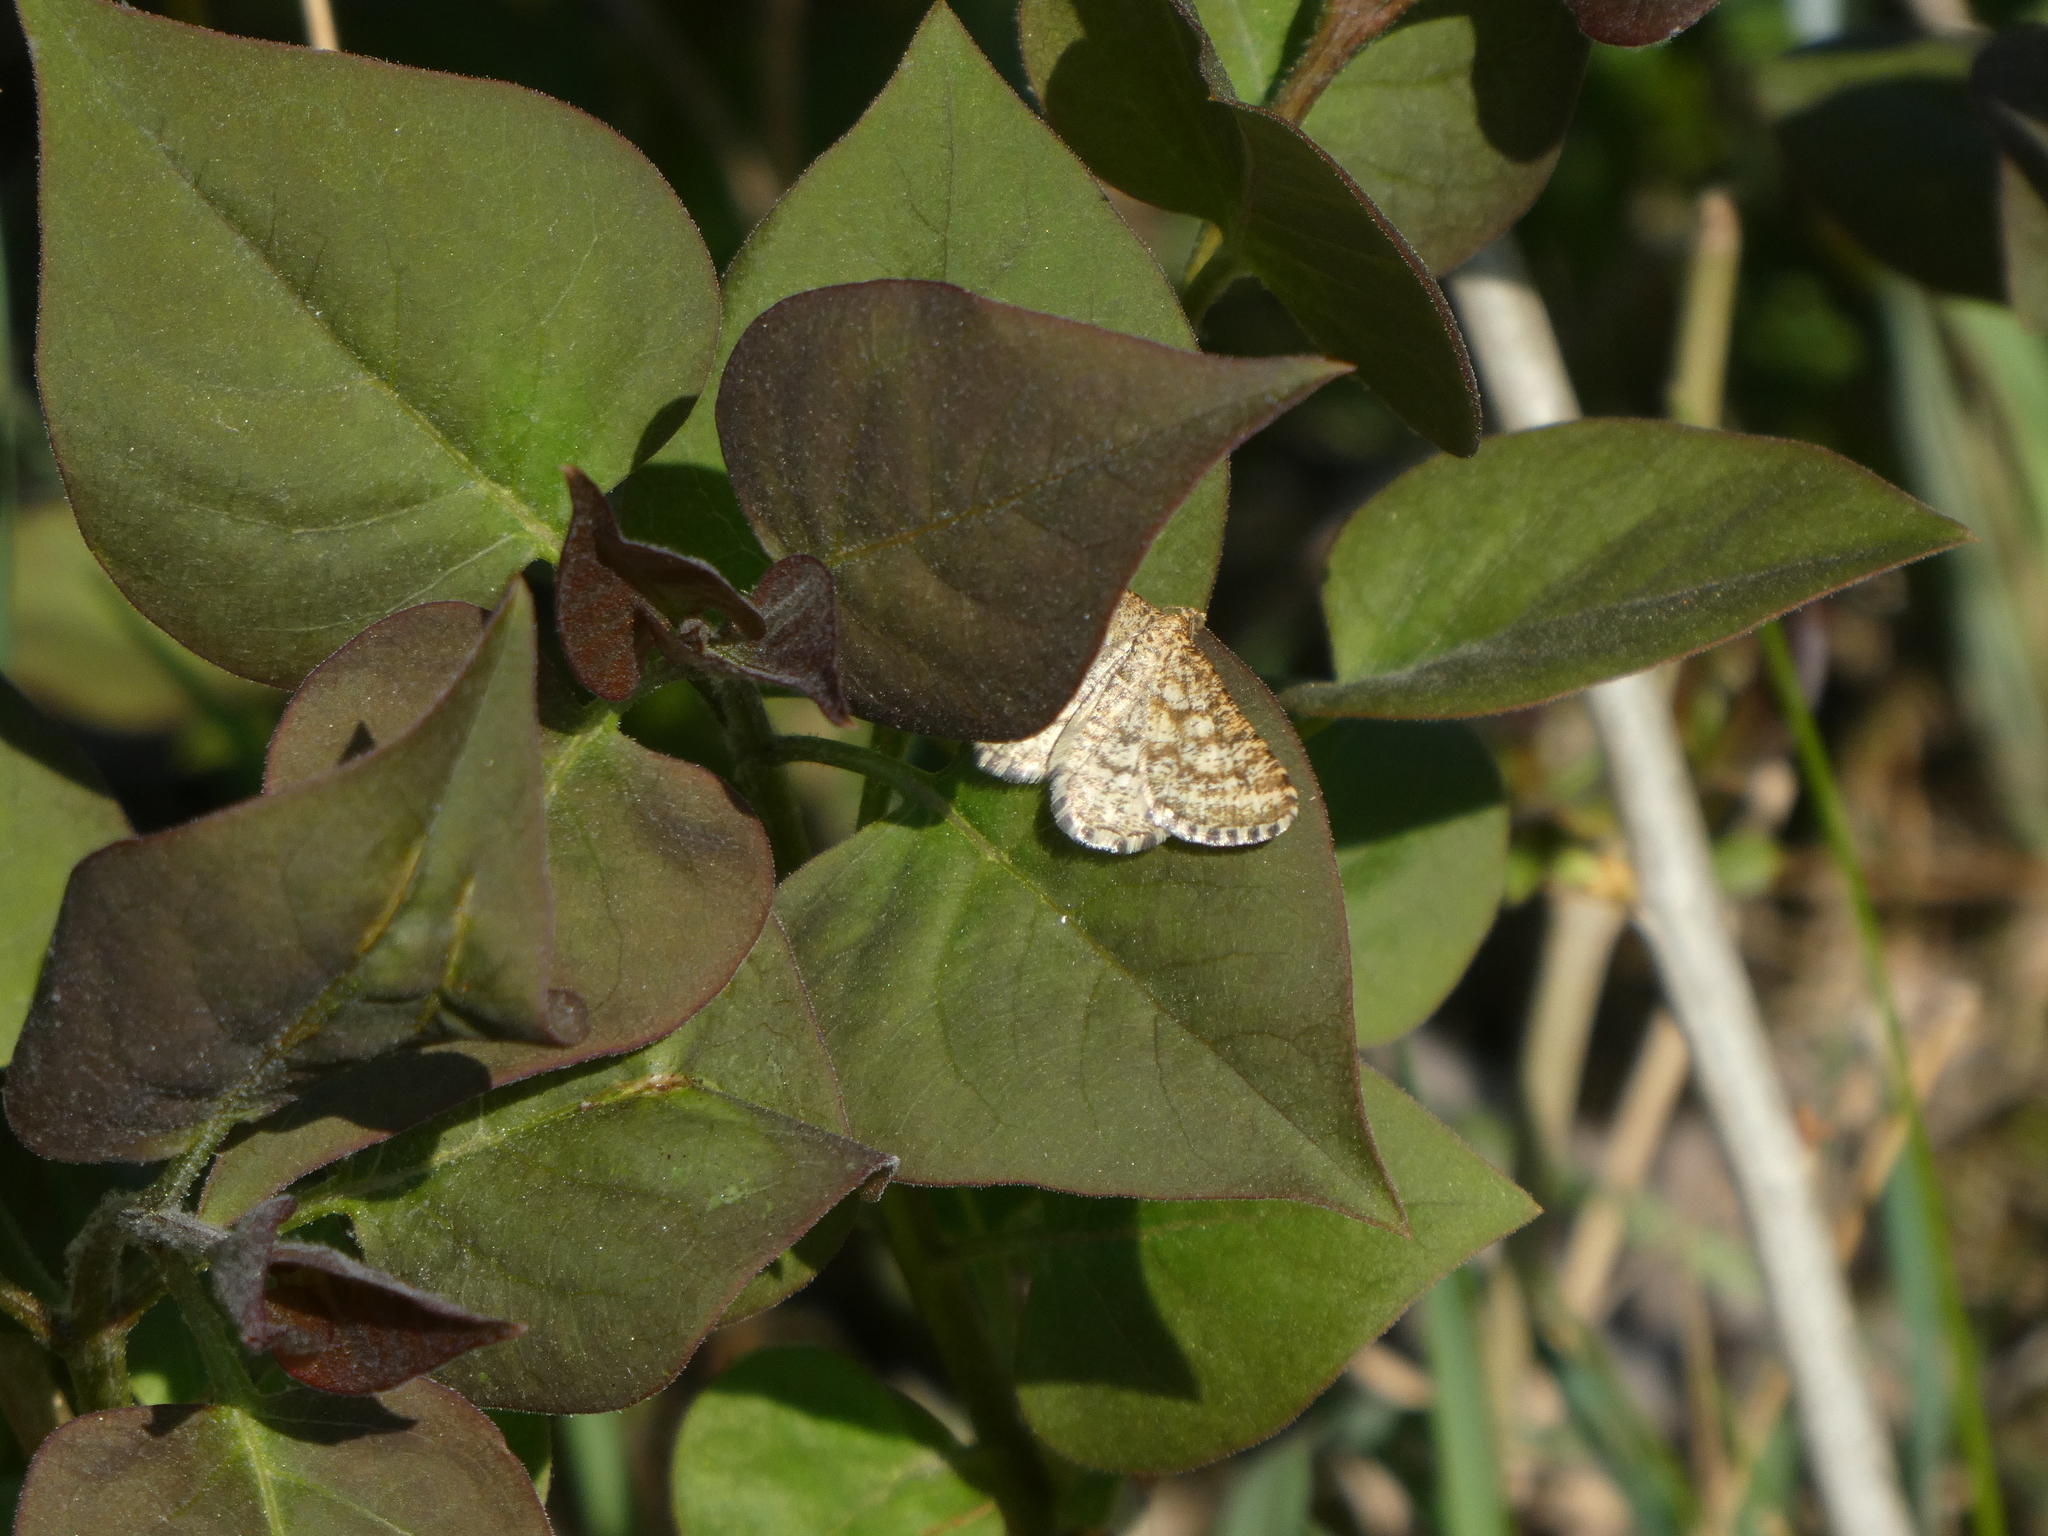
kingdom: Animalia
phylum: Arthropoda
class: Insecta
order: Lepidoptera
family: Geometridae
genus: Heliomata
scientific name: Heliomata glarearia
